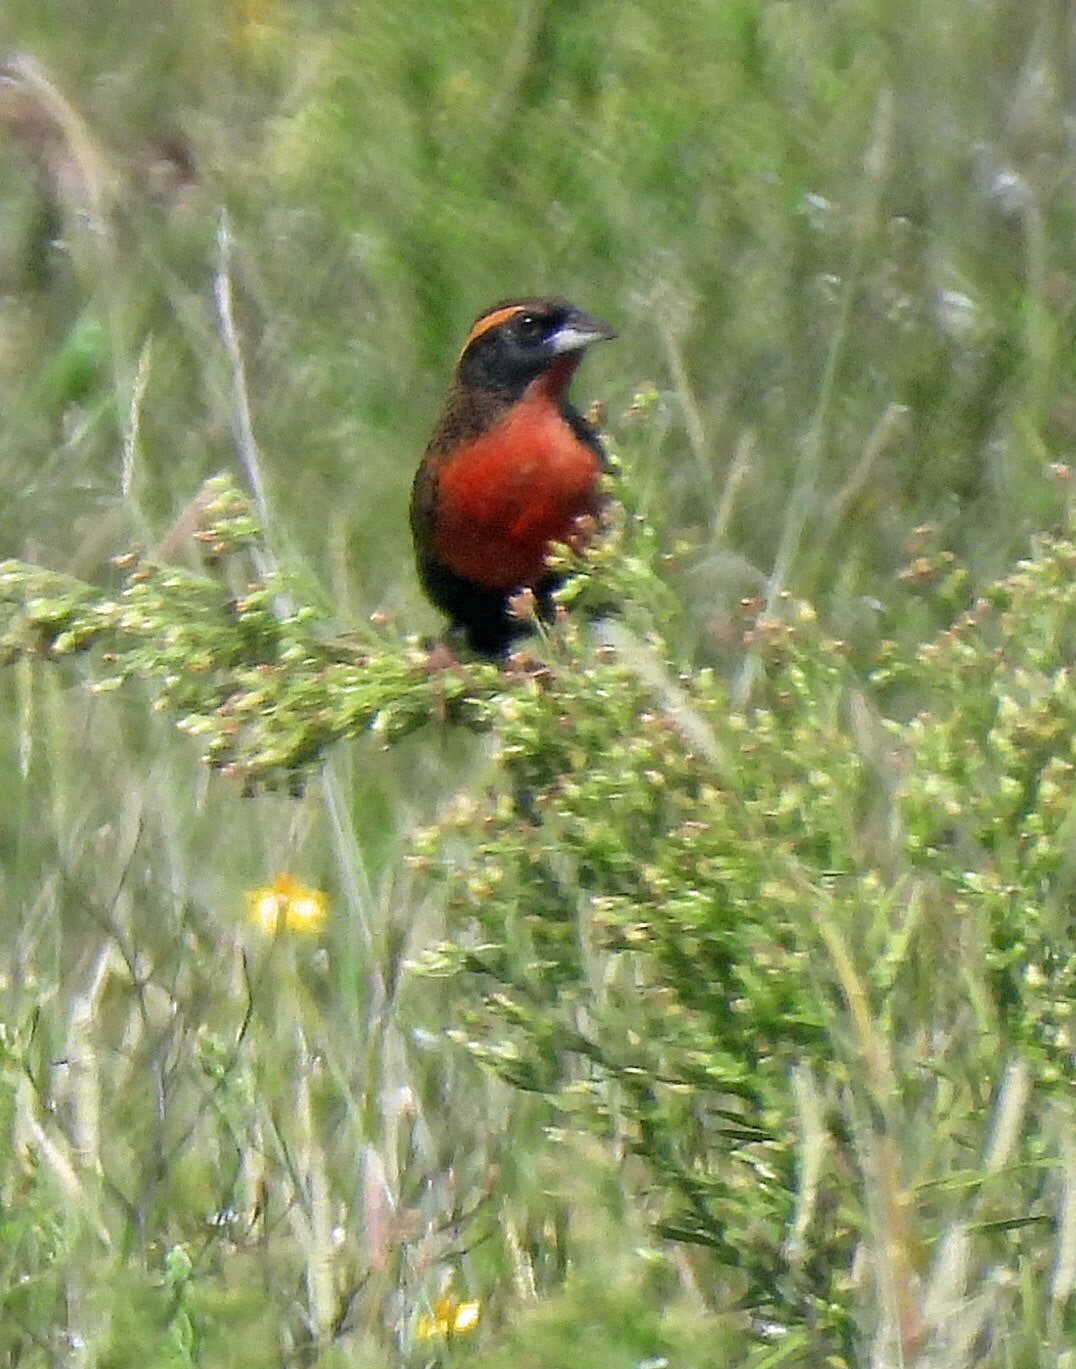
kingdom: Animalia
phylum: Chordata
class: Aves
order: Passeriformes
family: Icteridae
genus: Sturnella
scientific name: Sturnella superciliaris
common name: White-browed blackbird
